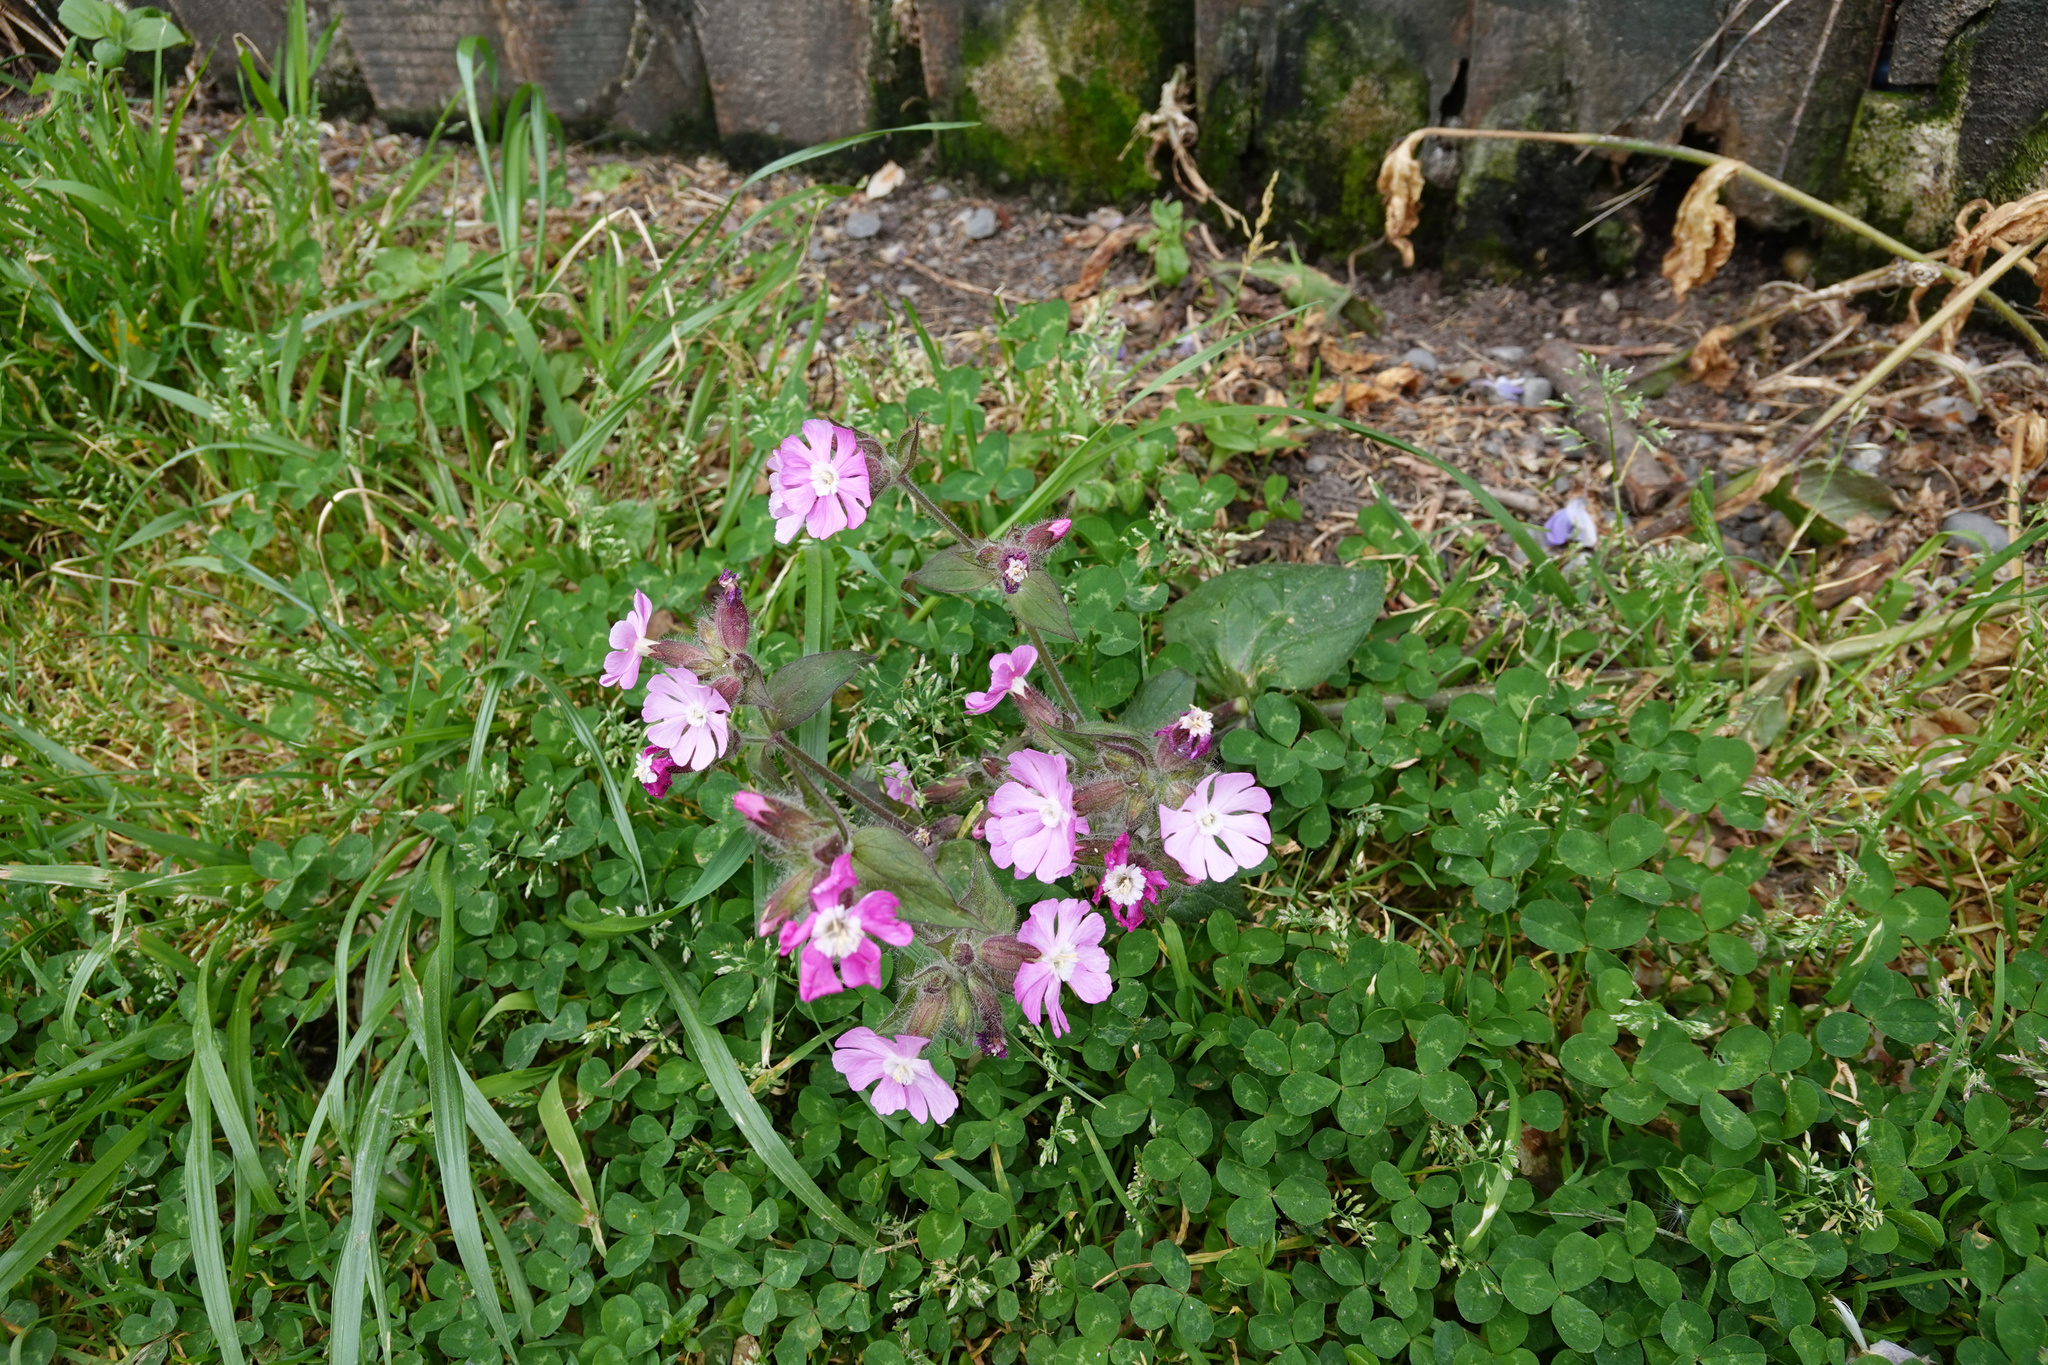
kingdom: Plantae
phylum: Tracheophyta
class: Magnoliopsida
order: Caryophyllales
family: Caryophyllaceae
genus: Silene
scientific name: Silene dioica
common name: Red campion
